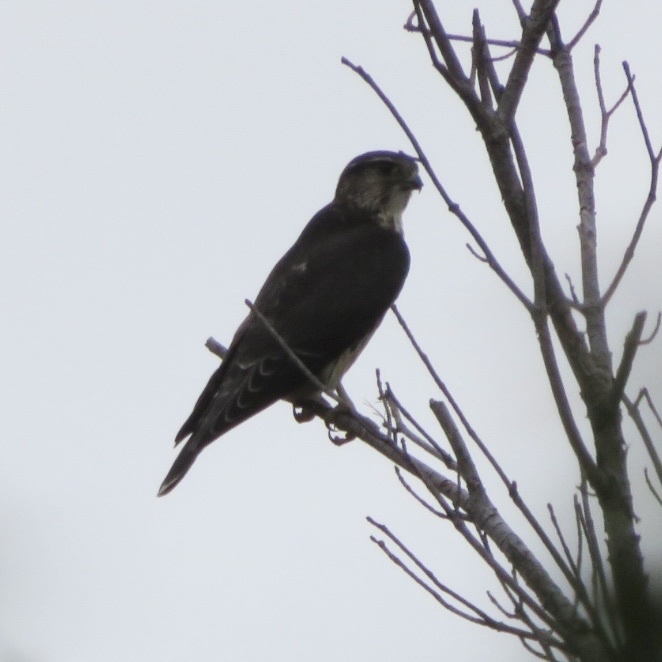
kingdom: Animalia
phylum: Chordata
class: Aves
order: Falconiformes
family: Falconidae
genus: Falco
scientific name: Falco columbarius
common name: Merlin
